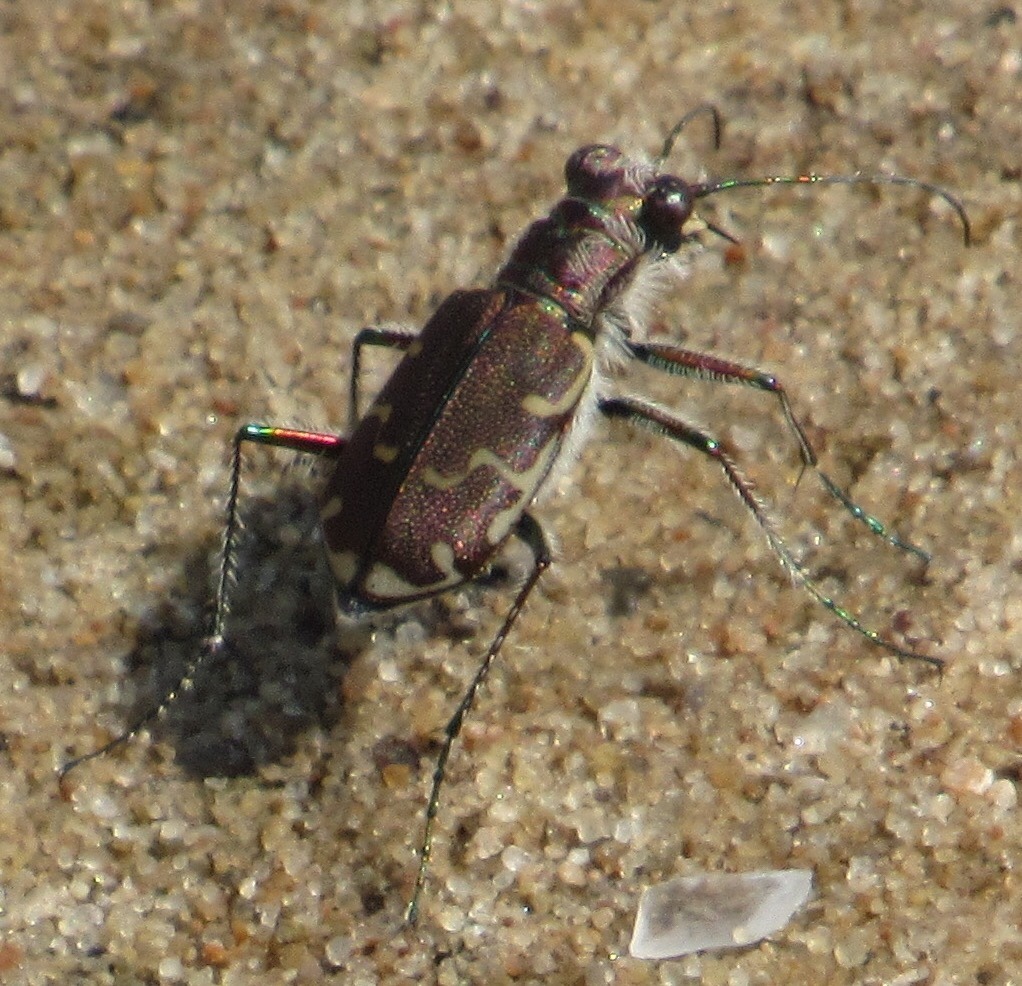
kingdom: Animalia
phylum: Arthropoda
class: Insecta
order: Coleoptera
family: Carabidae
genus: Cicindela
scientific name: Cicindela repanda
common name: Bronzed tiger beetle
